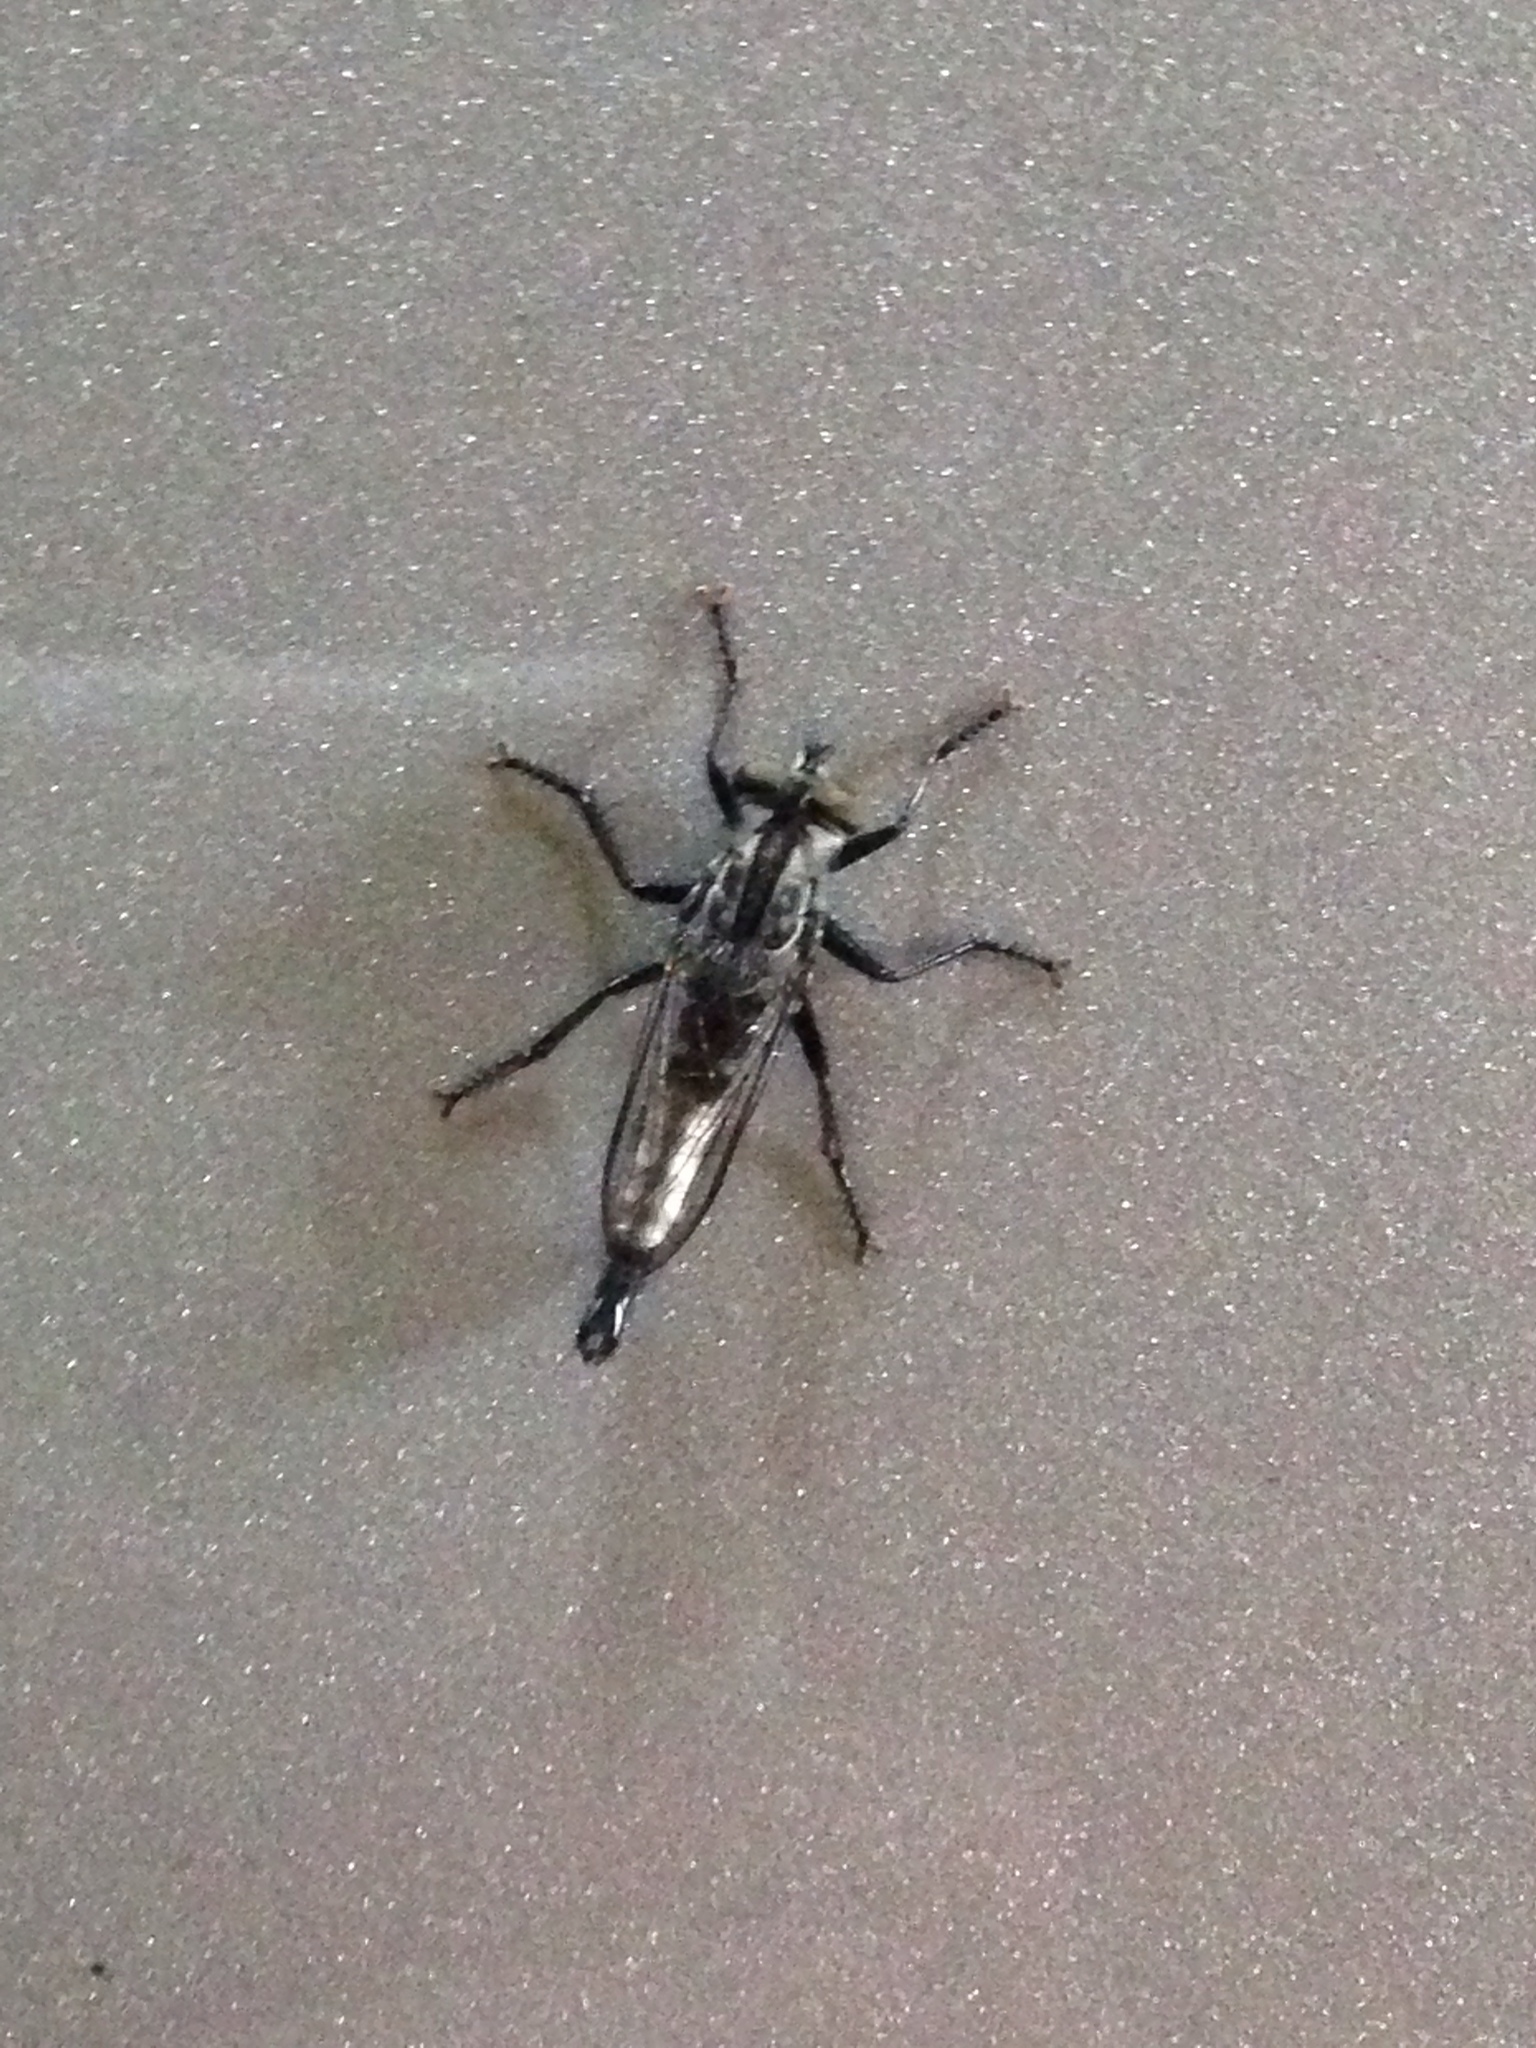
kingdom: Animalia
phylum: Arthropoda
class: Insecta
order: Diptera
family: Asilidae
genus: Efferia
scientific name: Efferia aestuans
